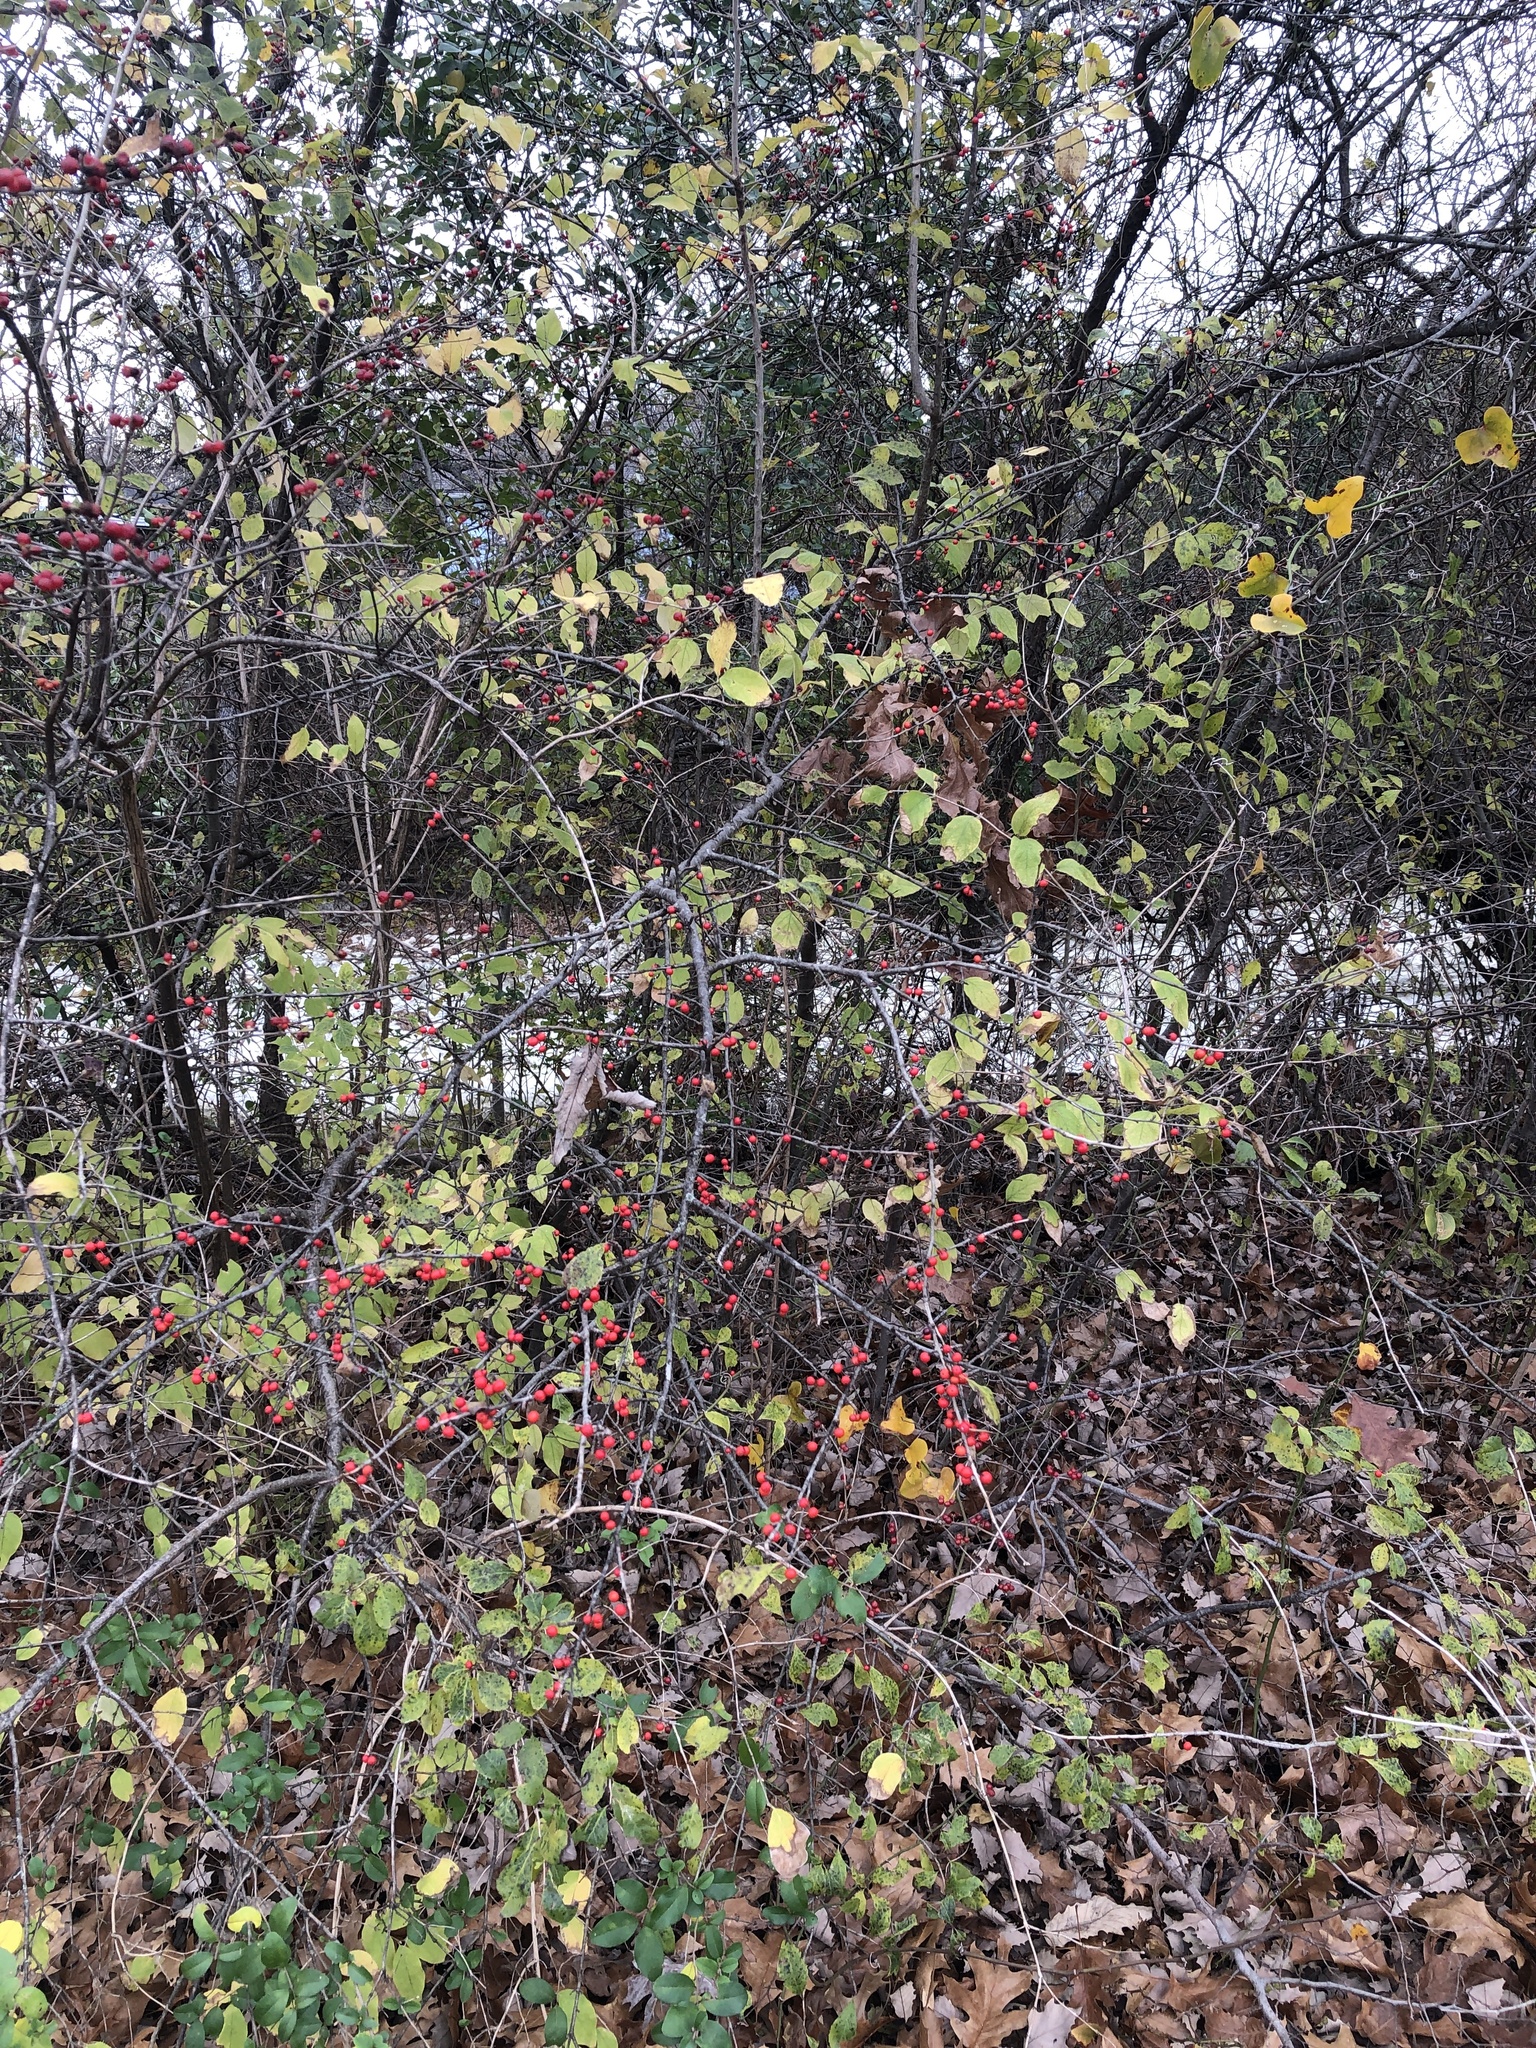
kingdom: Plantae
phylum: Tracheophyta
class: Magnoliopsida
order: Aquifoliales
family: Aquifoliaceae
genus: Ilex
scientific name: Ilex decidua
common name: Possum-haw
